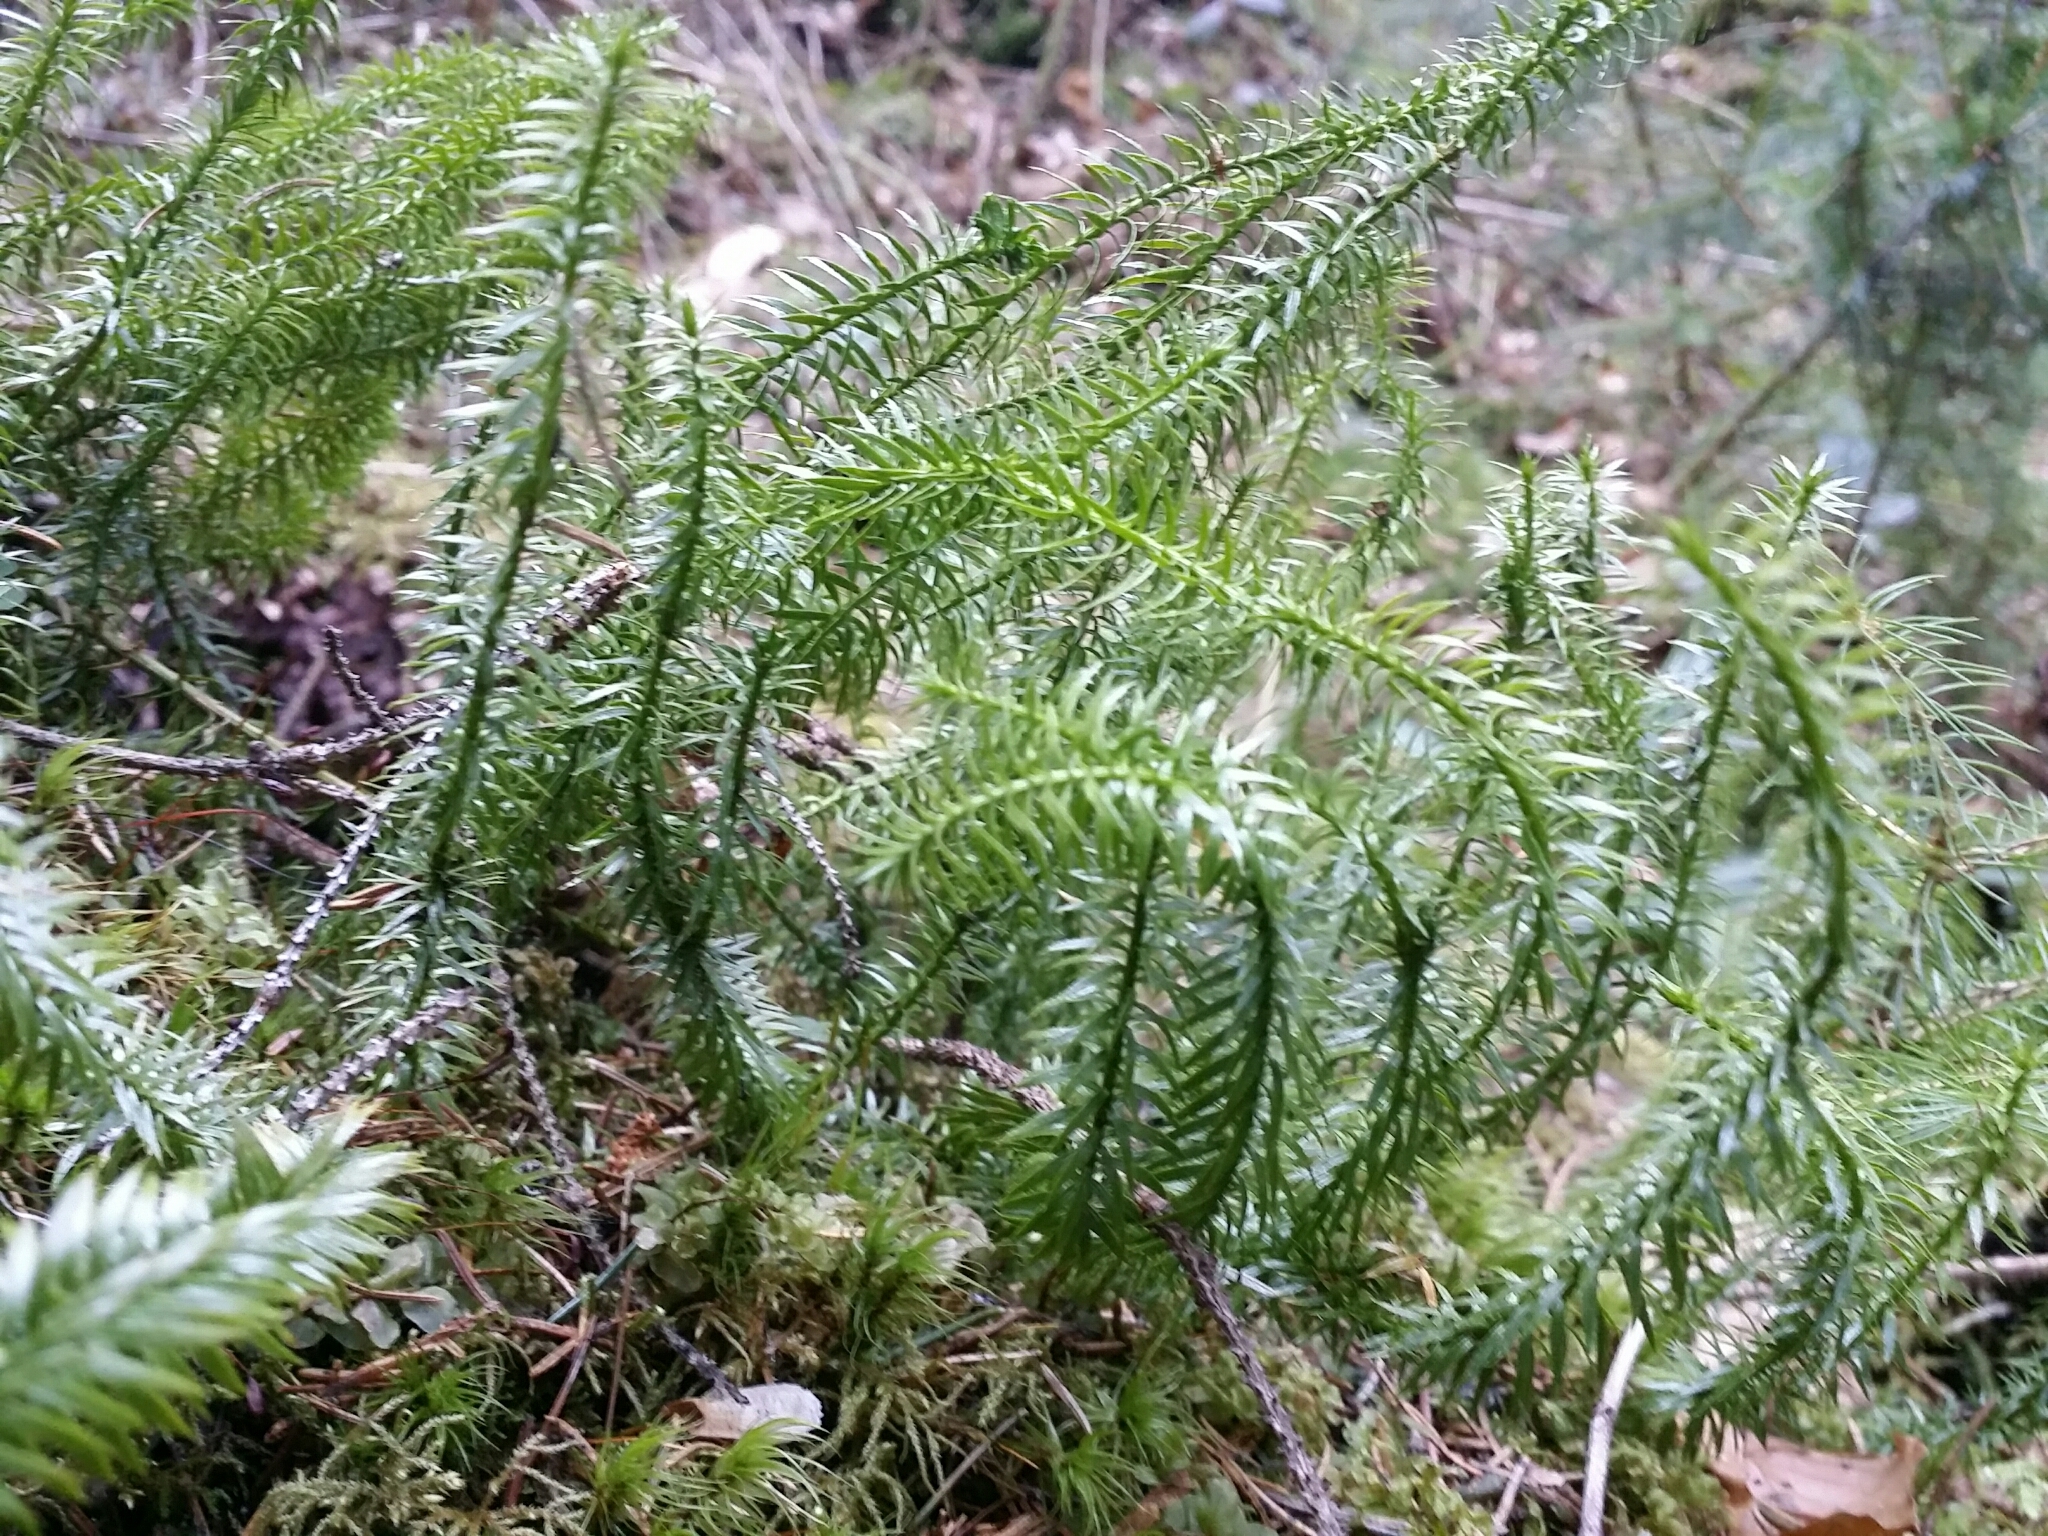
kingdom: Plantae
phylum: Tracheophyta
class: Lycopodiopsida
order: Lycopodiales
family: Lycopodiaceae
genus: Spinulum
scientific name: Spinulum annotinum
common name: Interrupted club-moss
